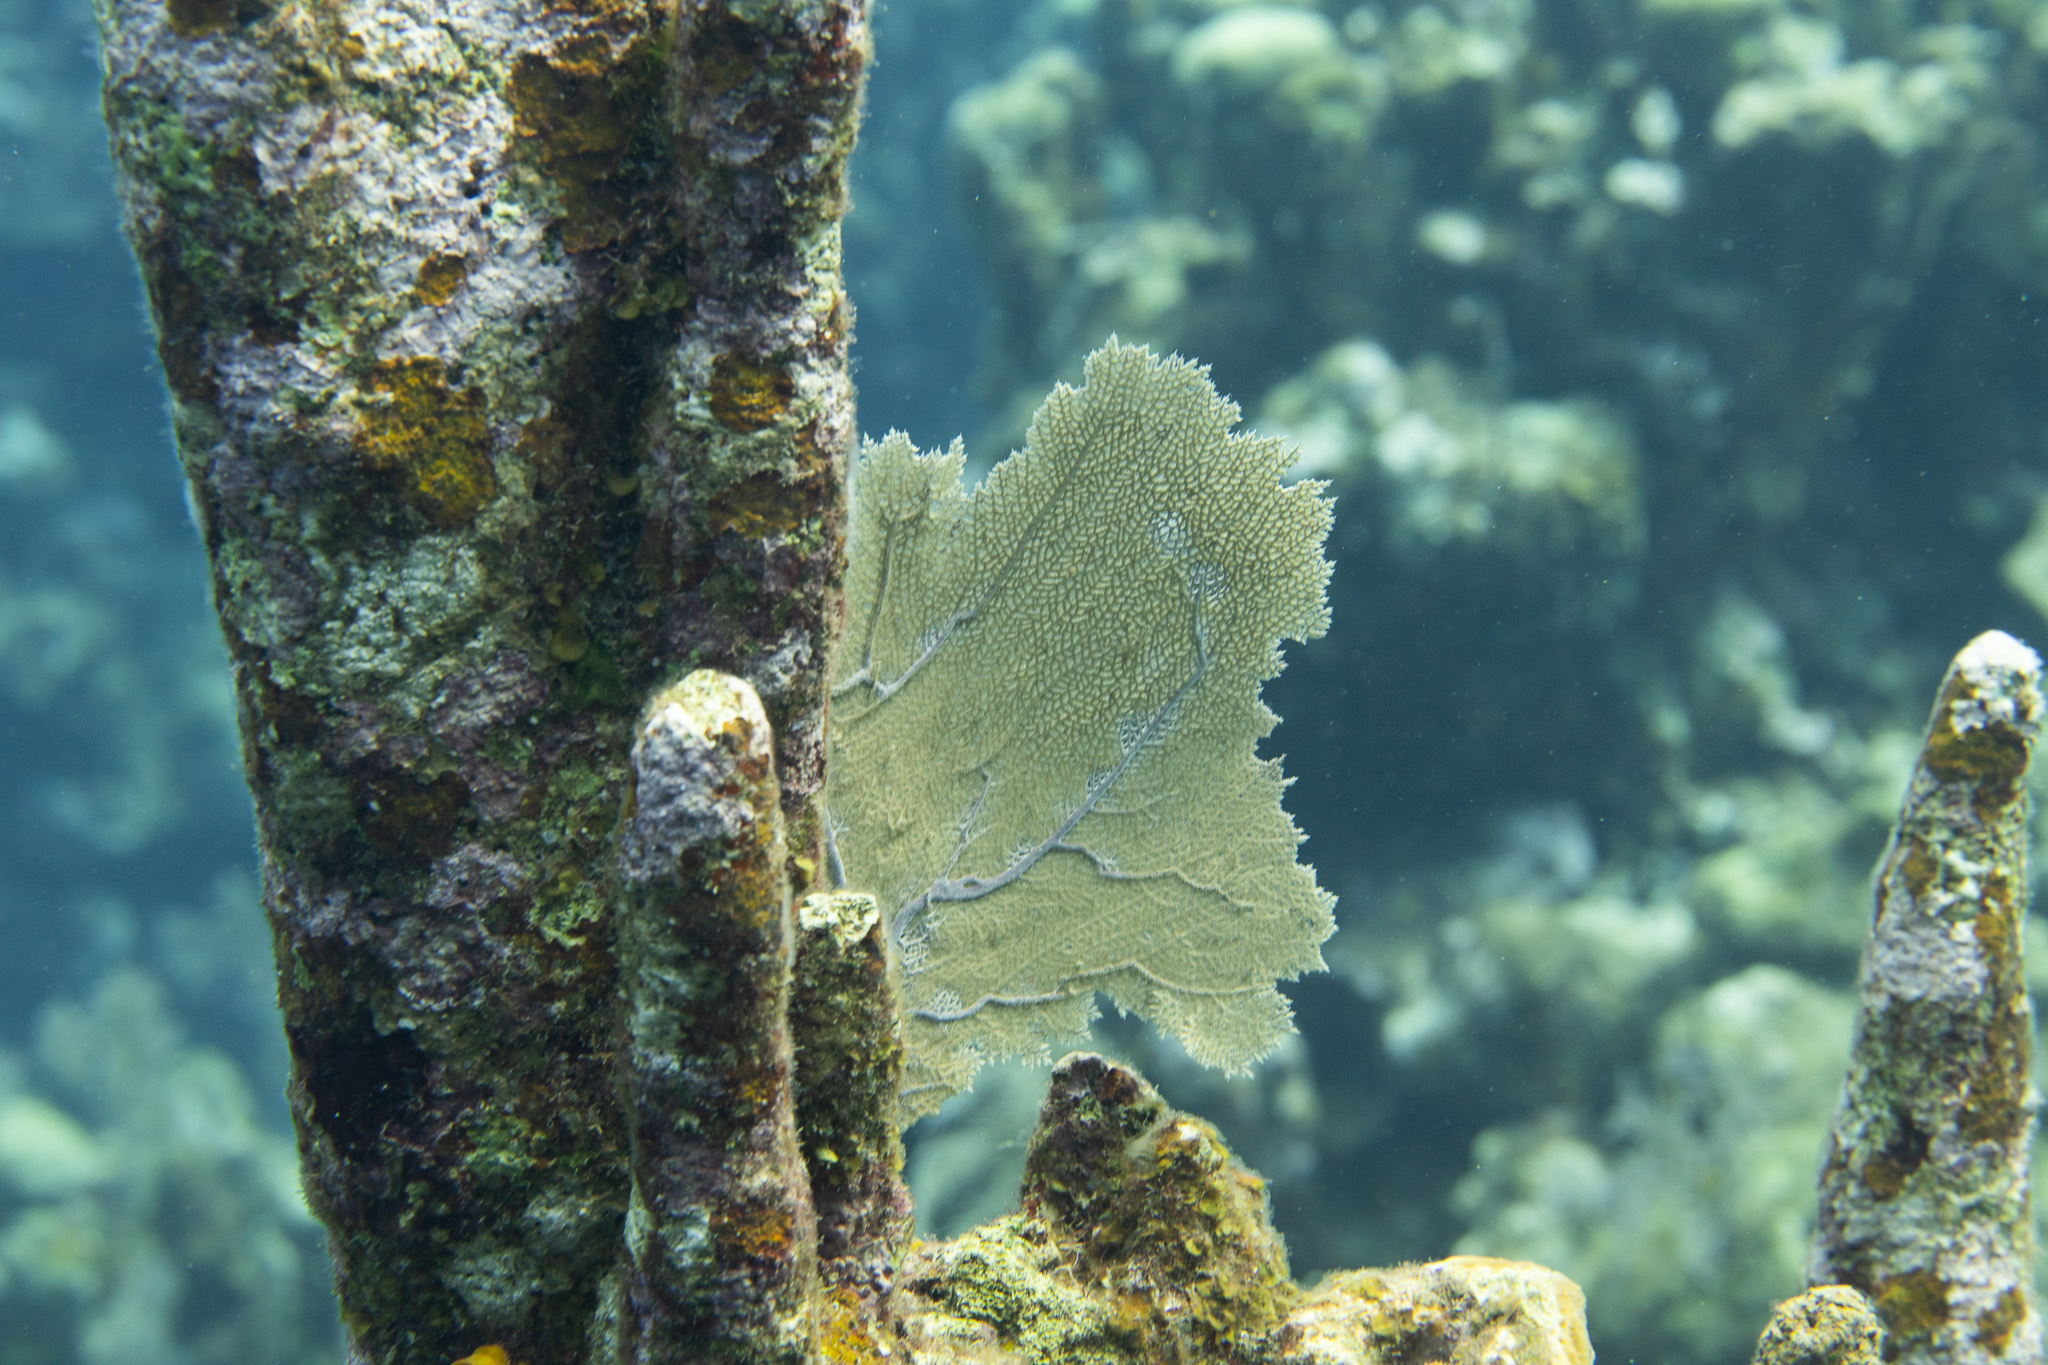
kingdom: Animalia
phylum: Cnidaria
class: Anthozoa
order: Malacalcyonacea
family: Gorgoniidae
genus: Gorgonia
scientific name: Gorgonia ventalina
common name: Common sea fan
